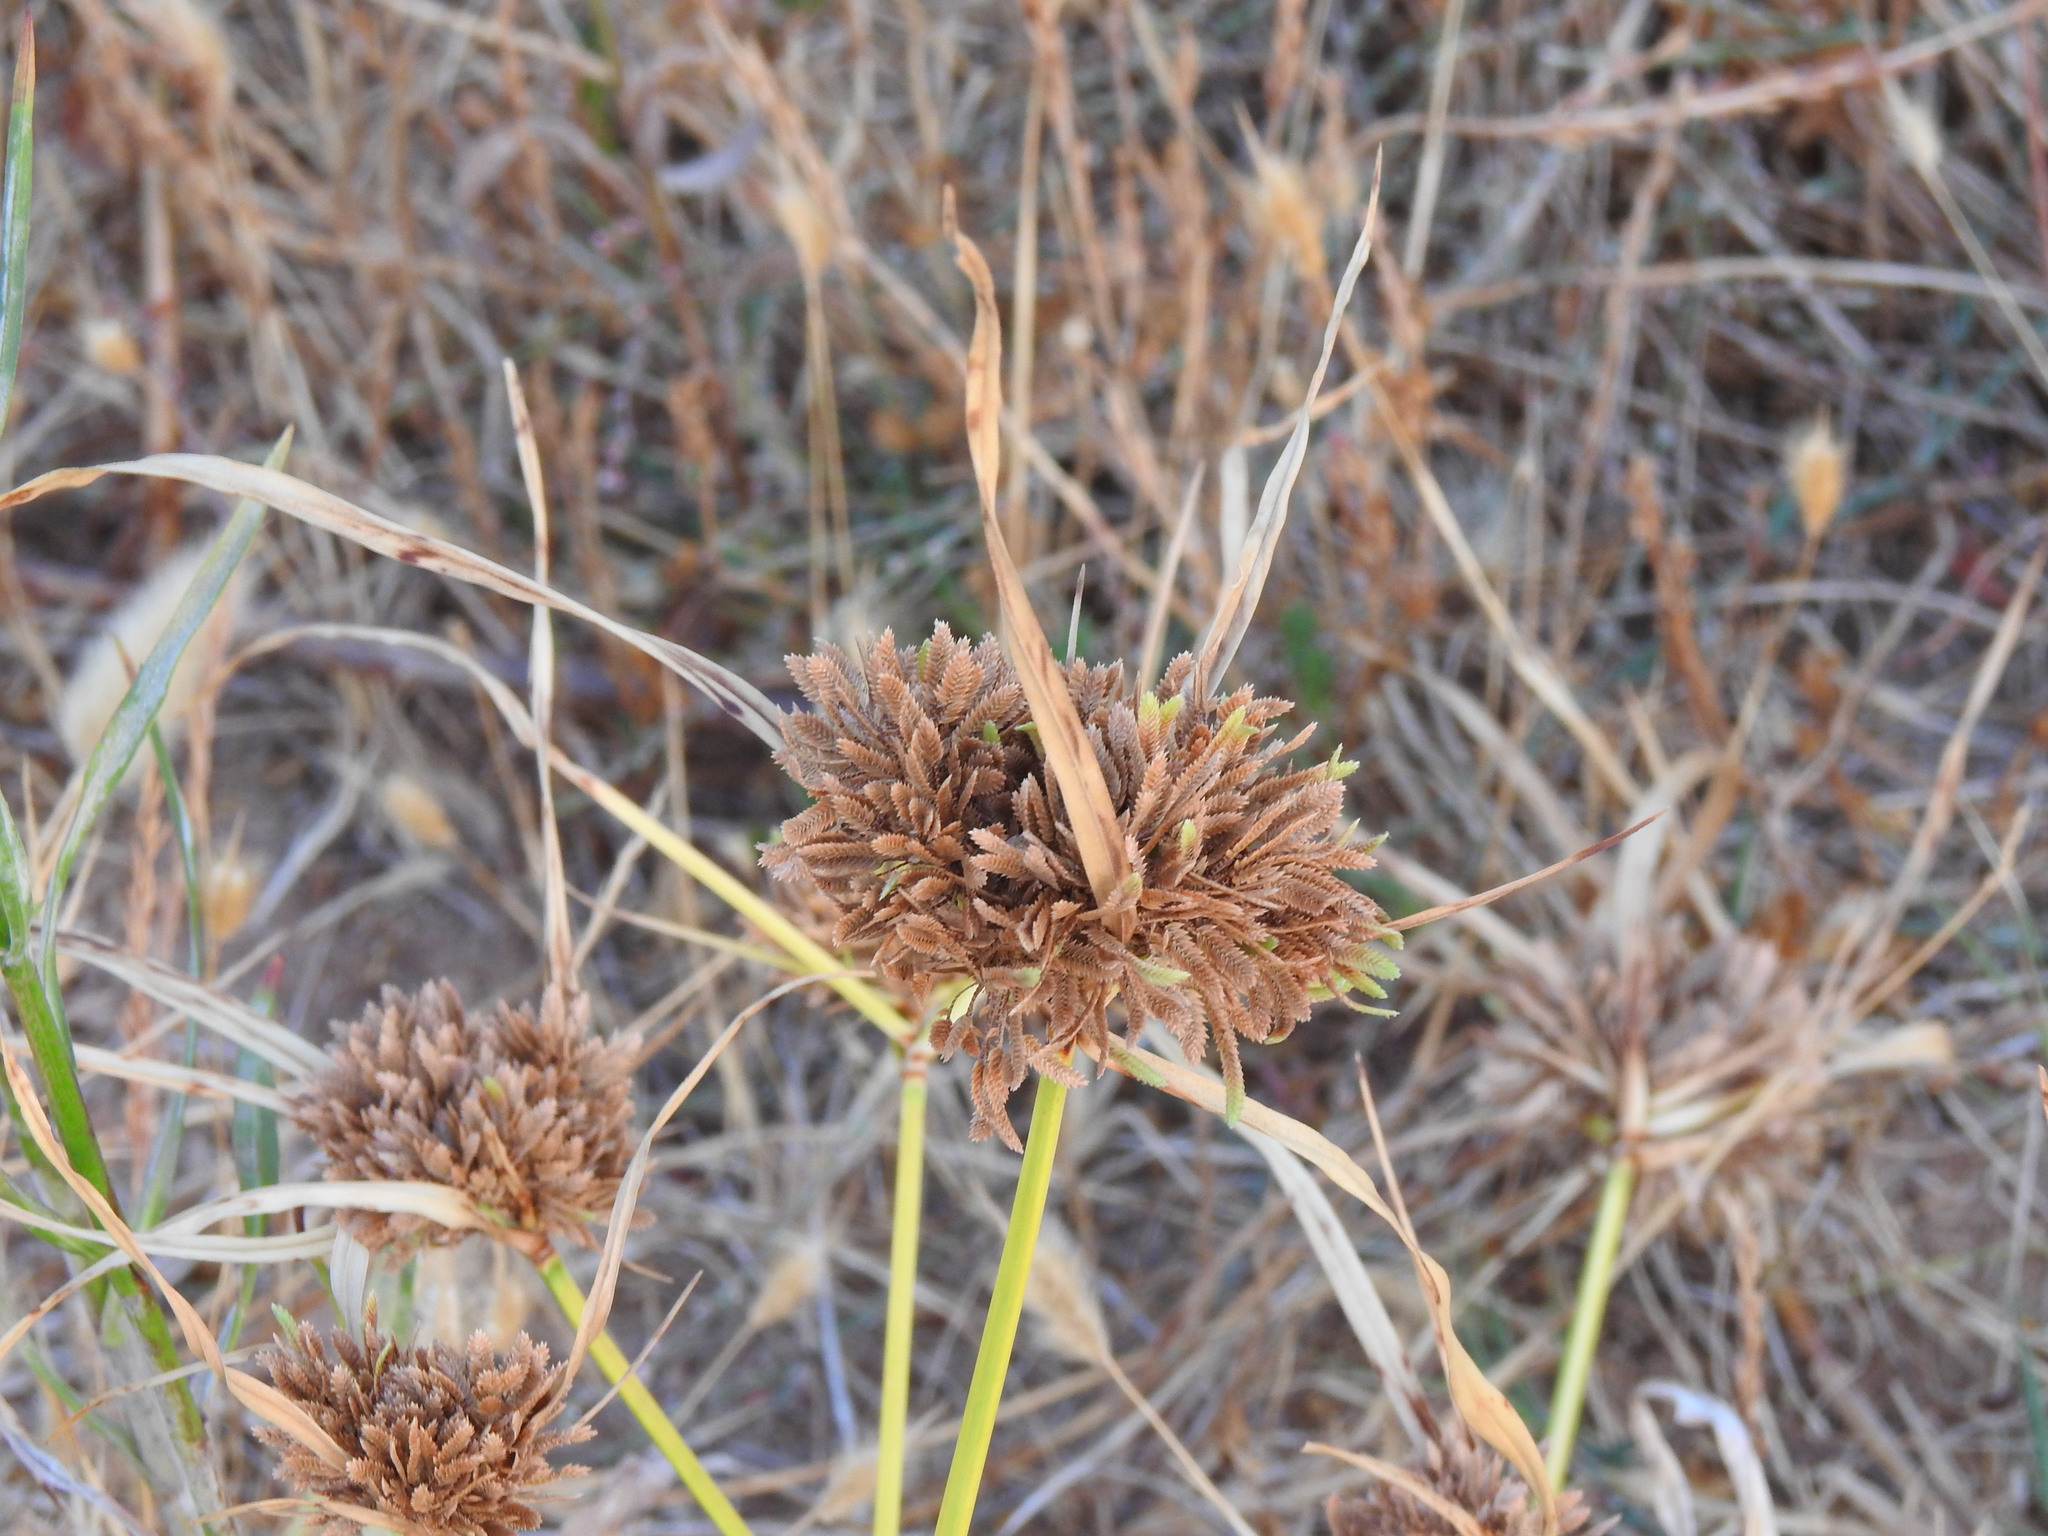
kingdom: Plantae
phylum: Tracheophyta
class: Liliopsida
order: Poales
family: Cyperaceae
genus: Cyperus
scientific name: Cyperus eragrostis
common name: Tall flatsedge
